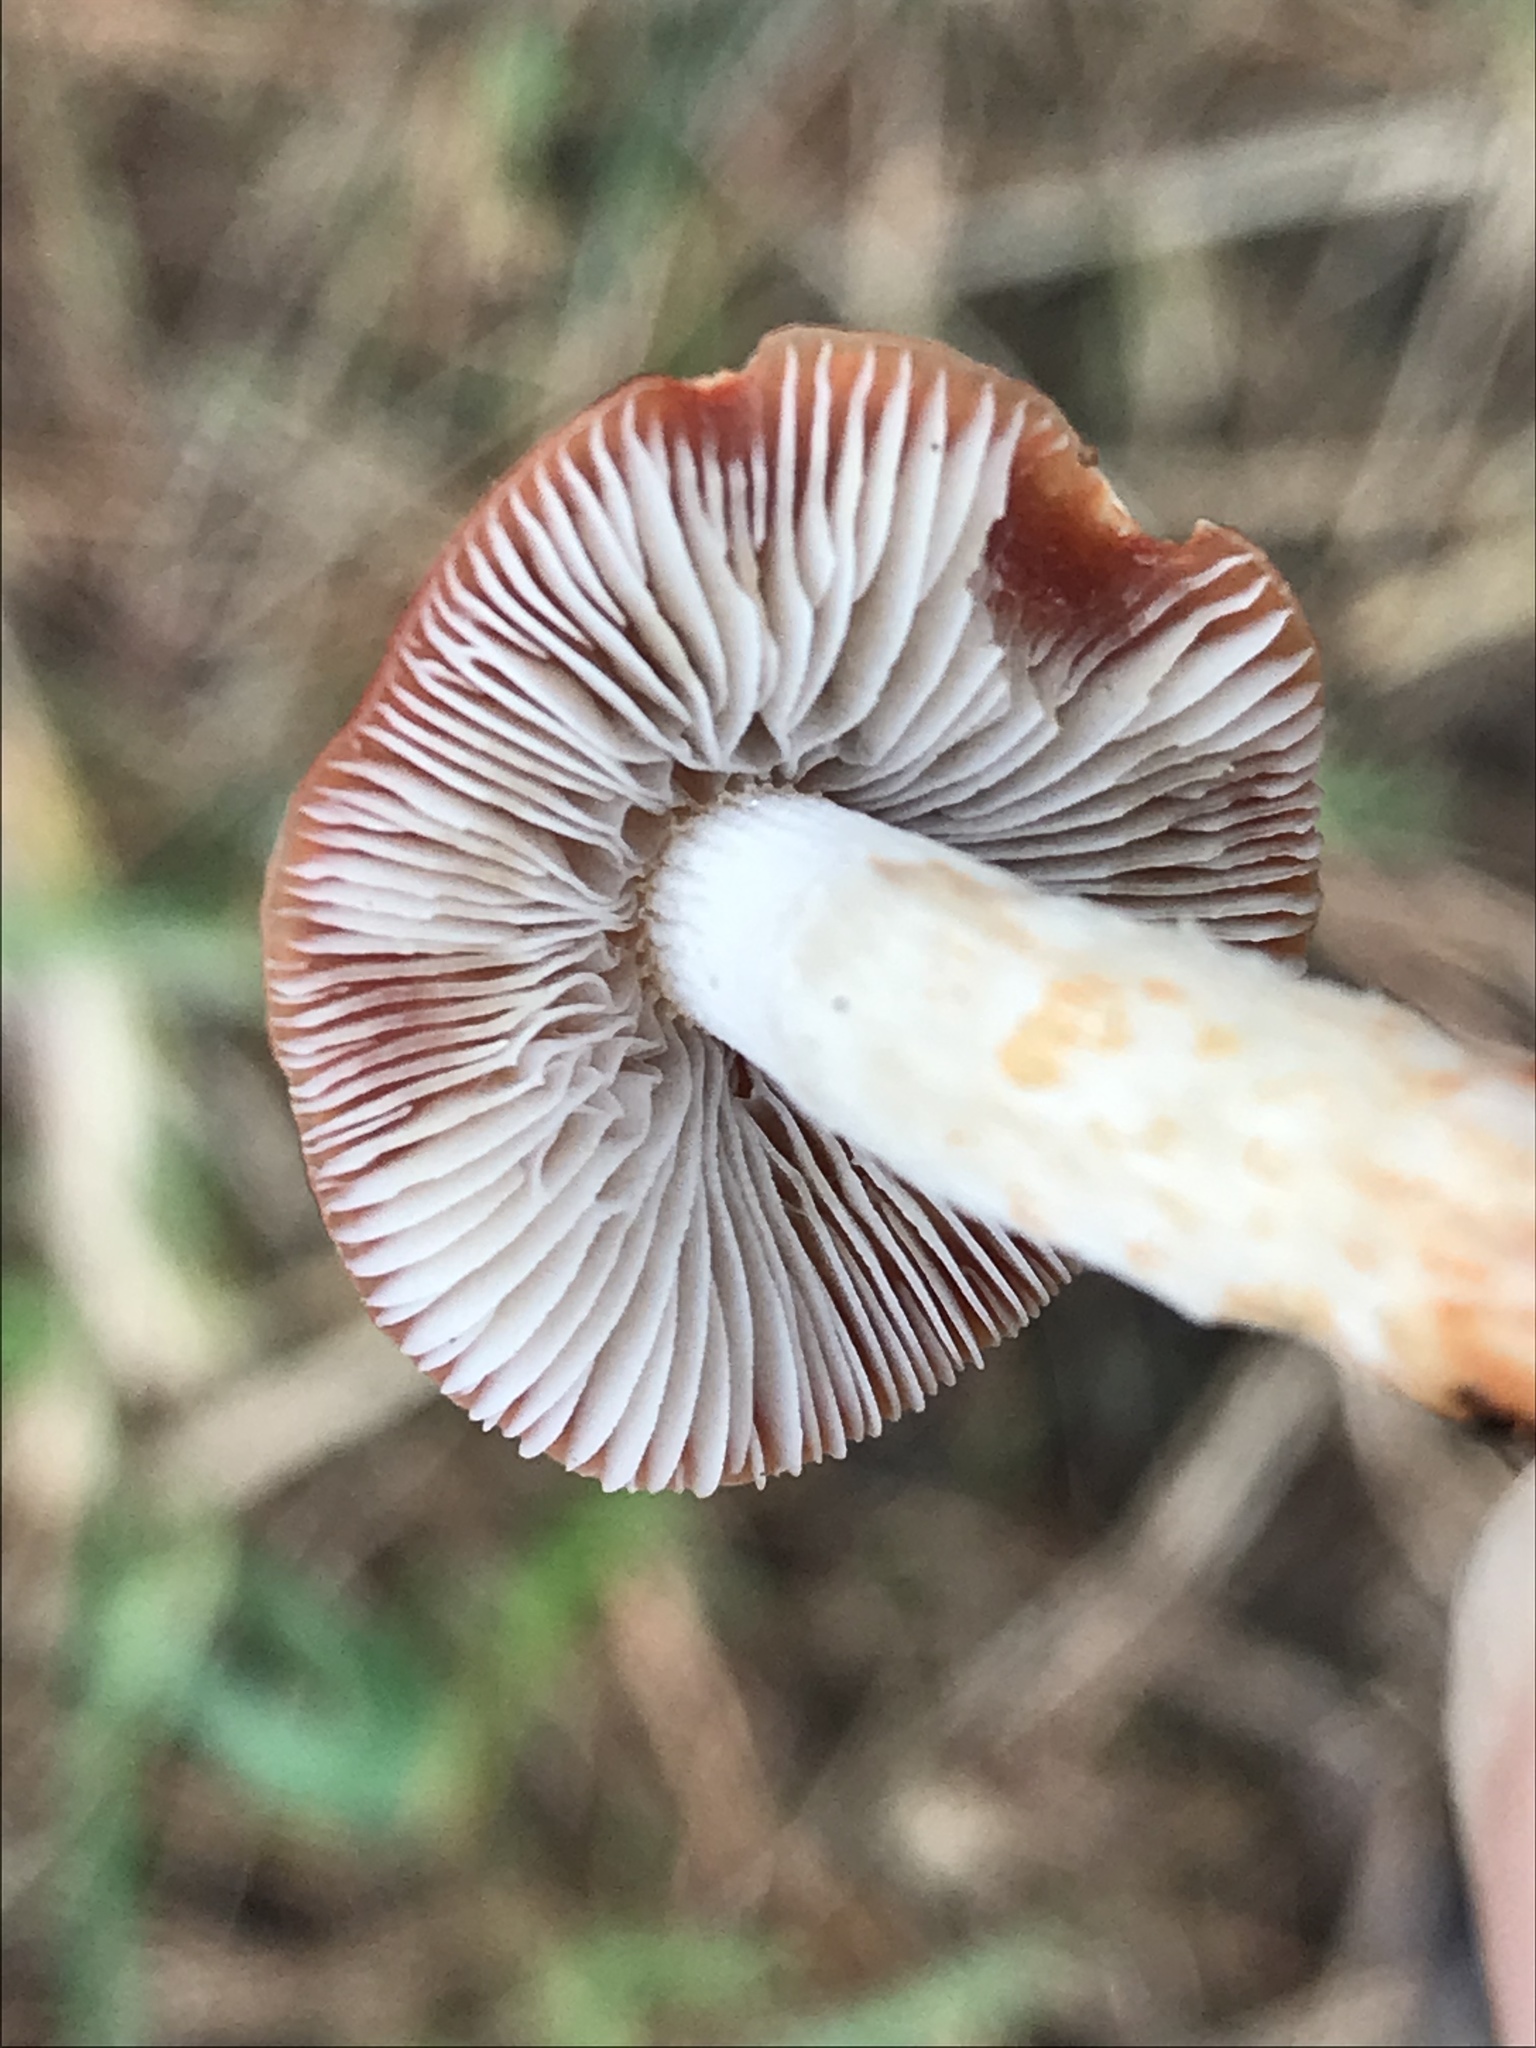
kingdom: Fungi
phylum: Basidiomycota
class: Agaricomycetes
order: Agaricales
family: Strophariaceae
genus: Leratiomyces
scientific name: Leratiomyces ceres
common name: Redlead roundhead
